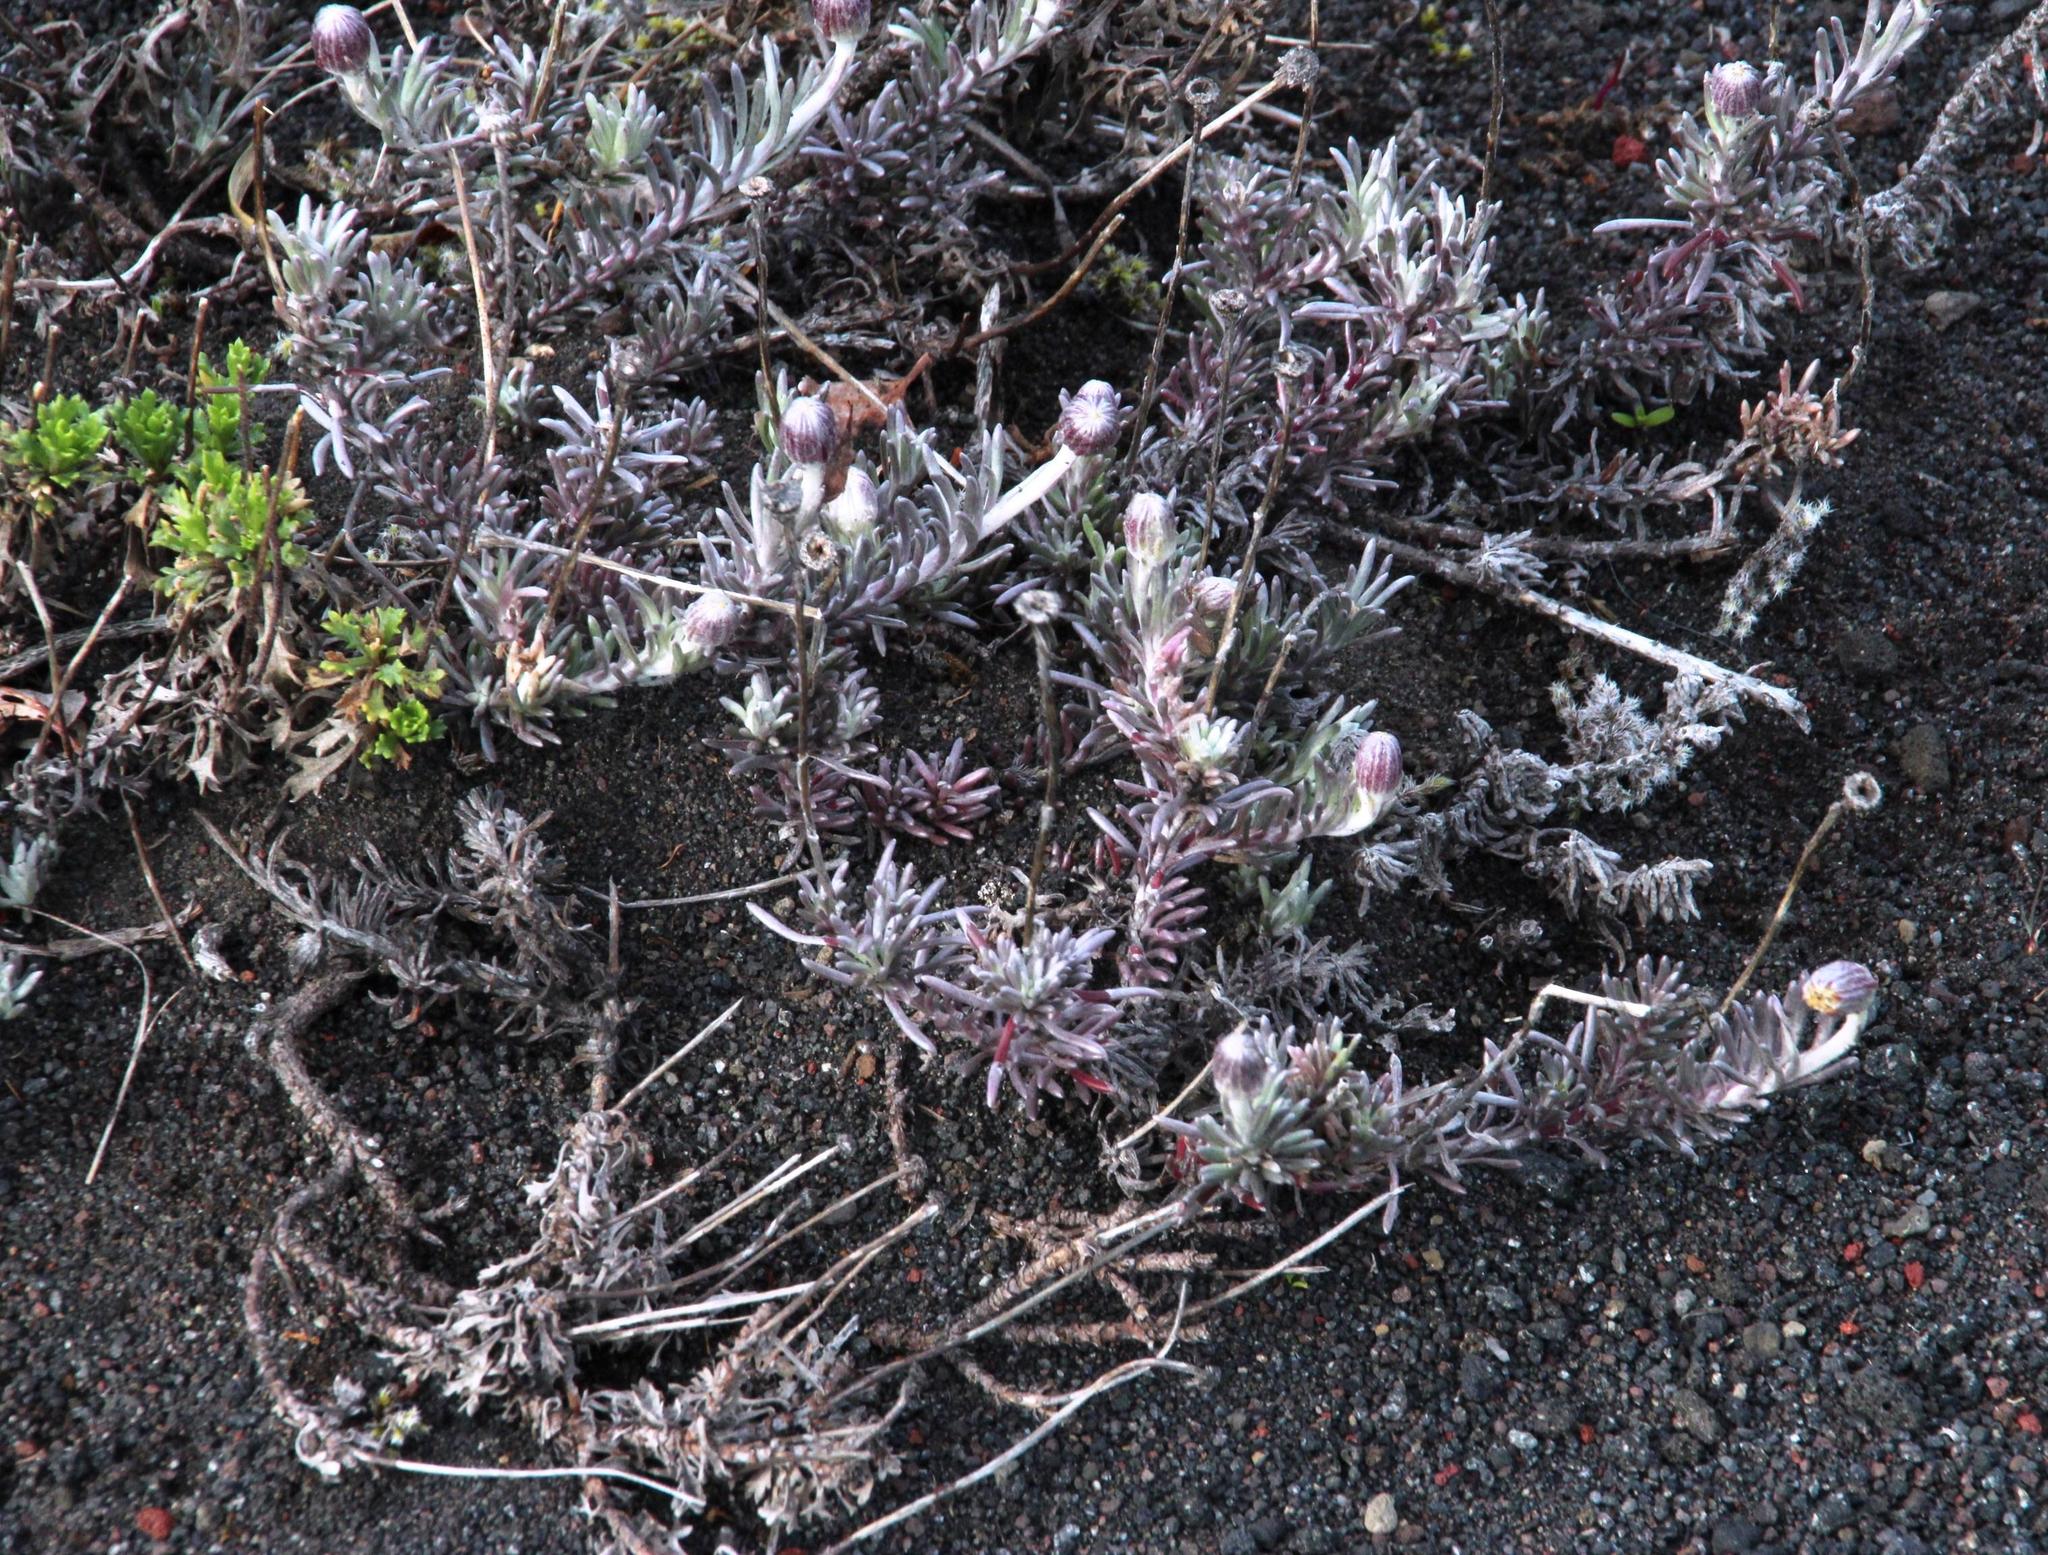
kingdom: Plantae
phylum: Tracheophyta
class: Magnoliopsida
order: Asterales
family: Asteraceae
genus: Senecio
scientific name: Senecio gilliesii
